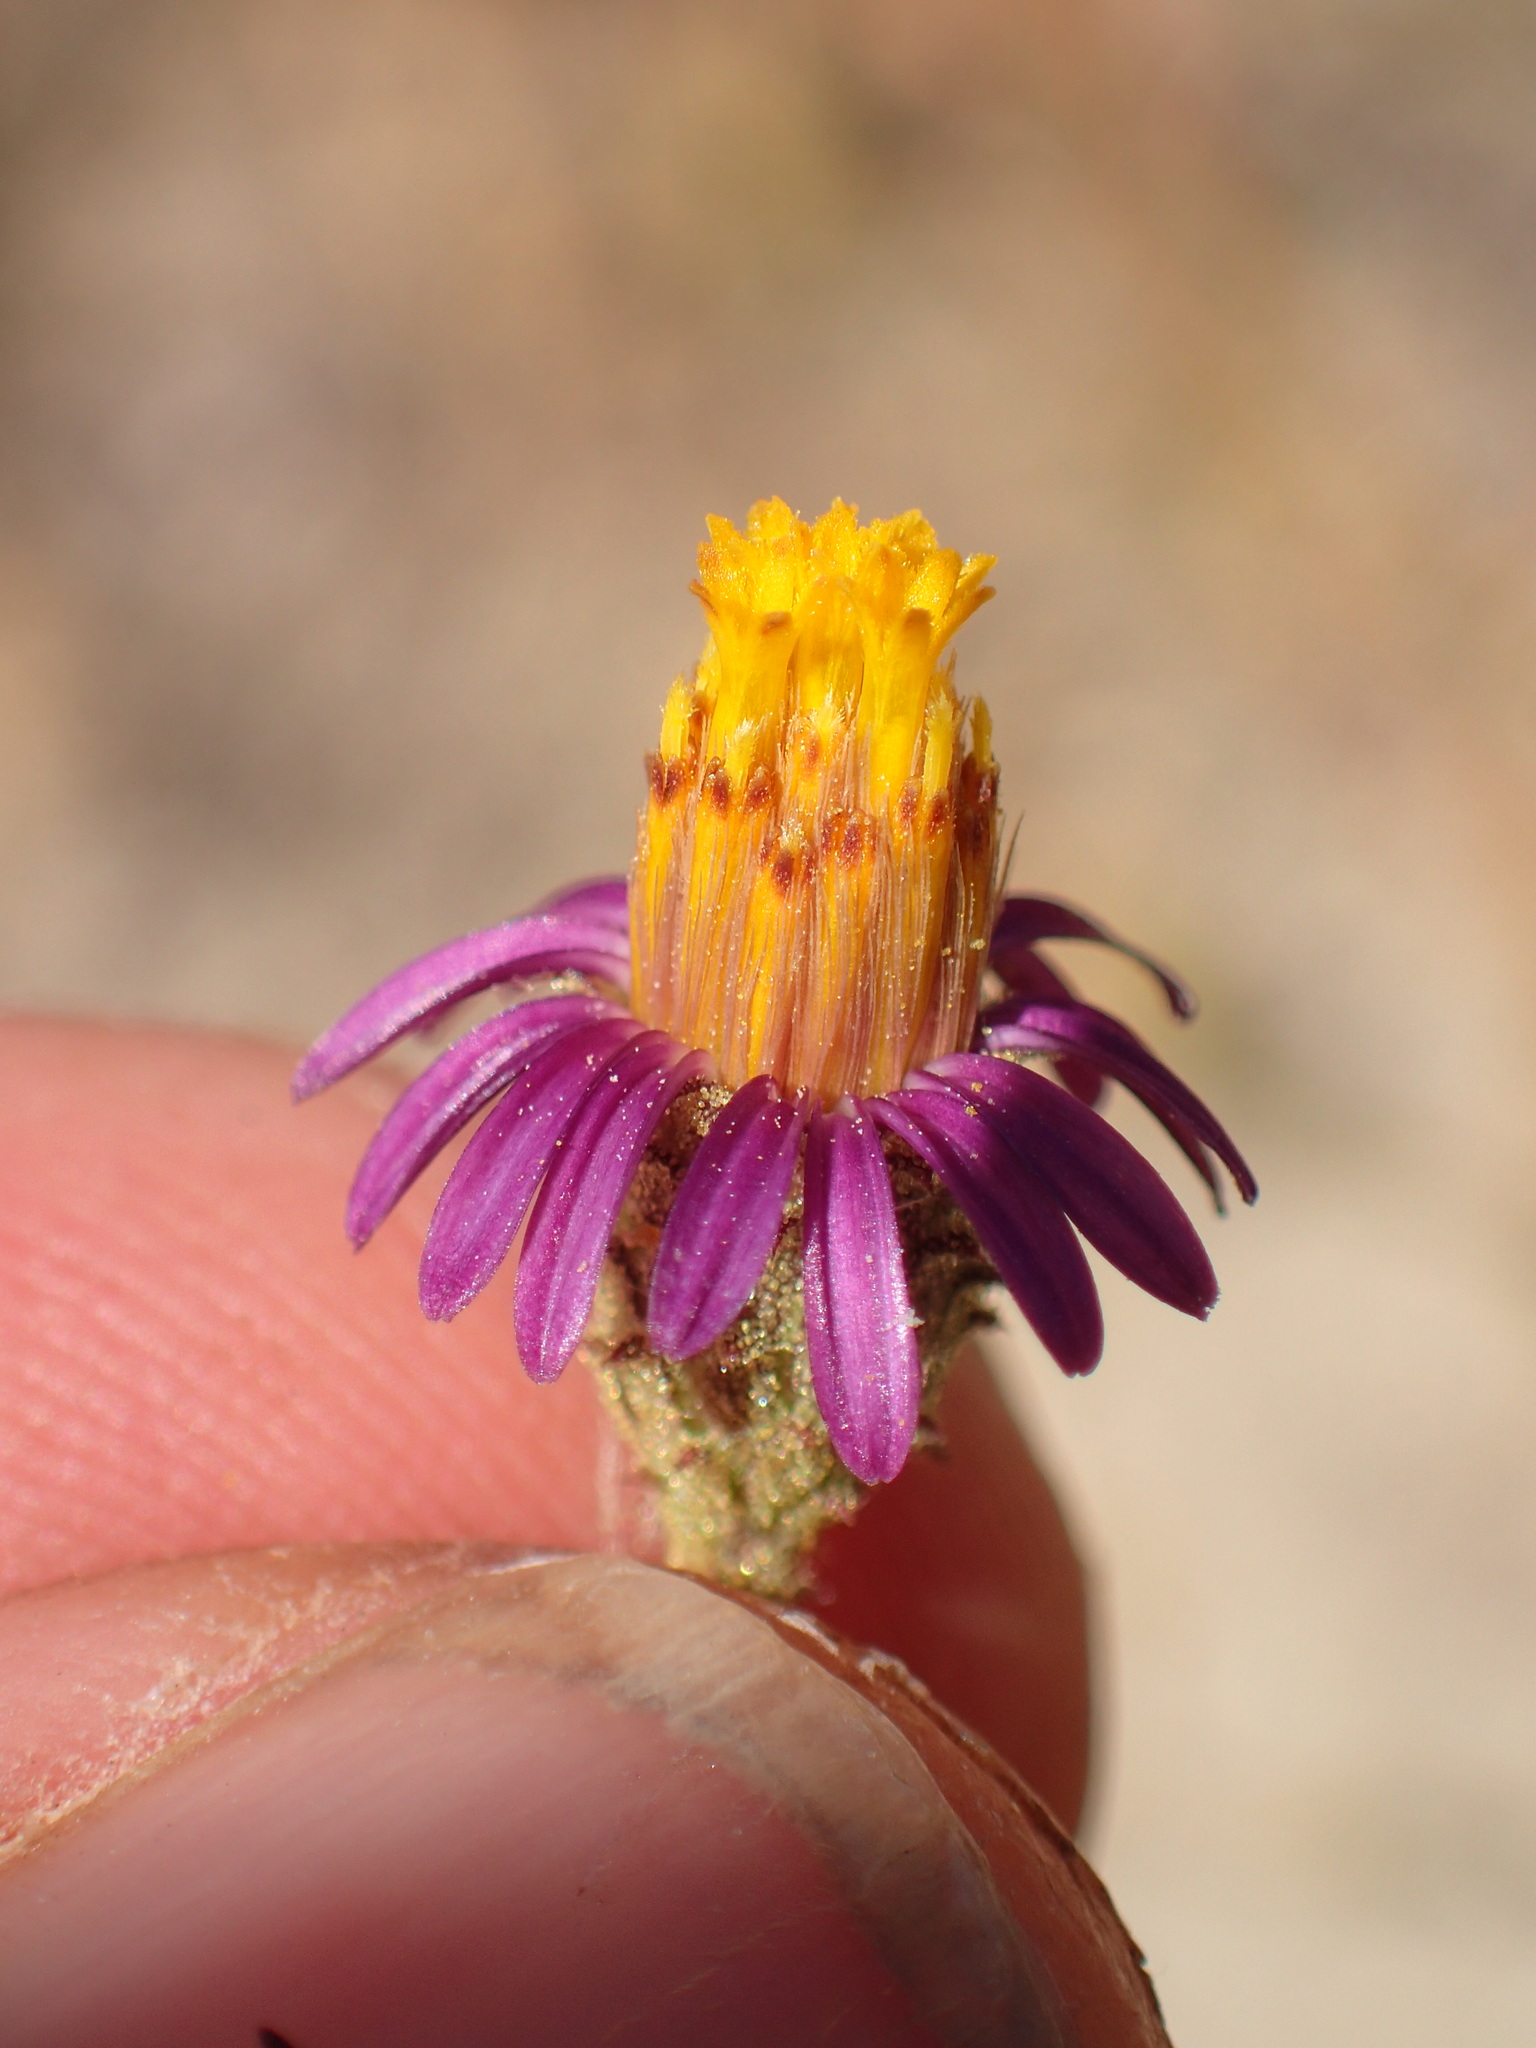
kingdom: Plantae
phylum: Tracheophyta
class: Magnoliopsida
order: Asterales
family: Asteraceae
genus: Corethrogyne
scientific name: Corethrogyne filaginifolia
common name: Sand-aster
